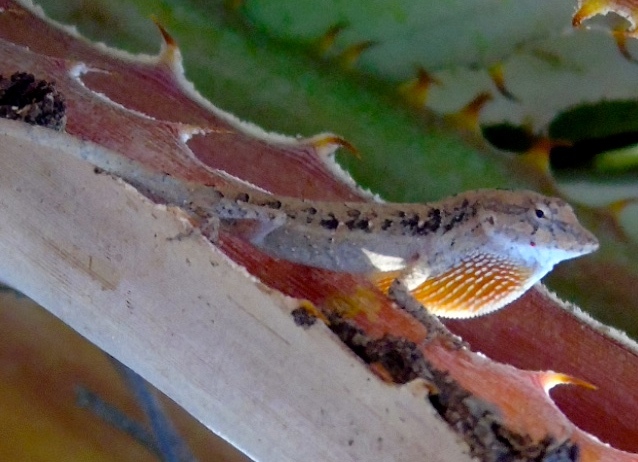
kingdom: Animalia
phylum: Chordata
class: Squamata
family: Dactyloidae
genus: Anolis
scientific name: Anolis nebulosus
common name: Clouded anole
